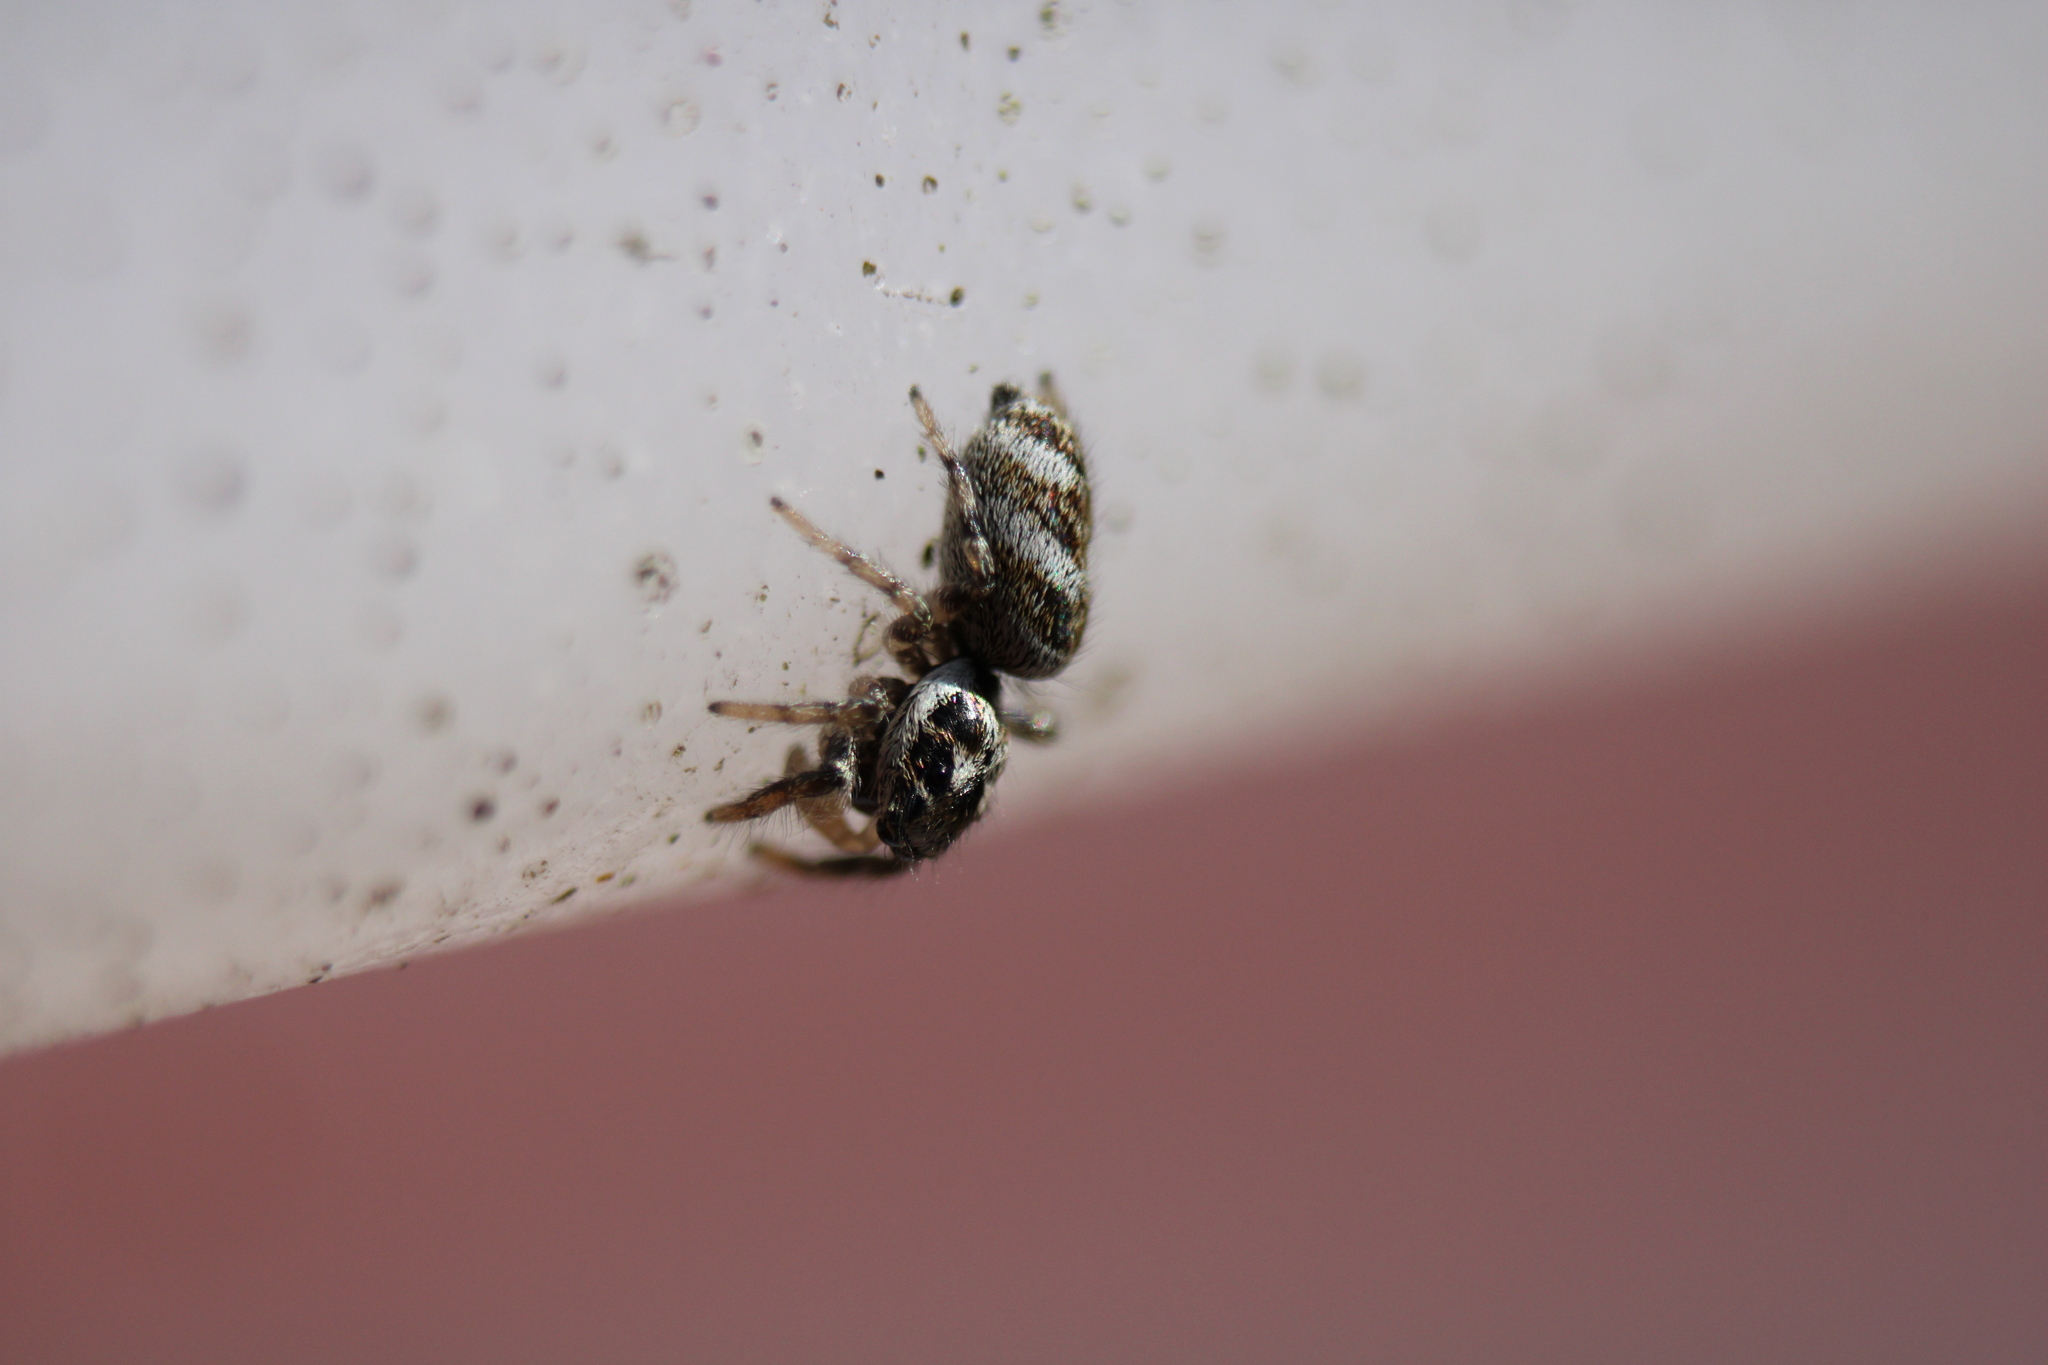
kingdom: Animalia
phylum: Arthropoda
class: Arachnida
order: Araneae
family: Salticidae
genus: Salticus
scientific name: Salticus scenicus
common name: Zebra jumper
